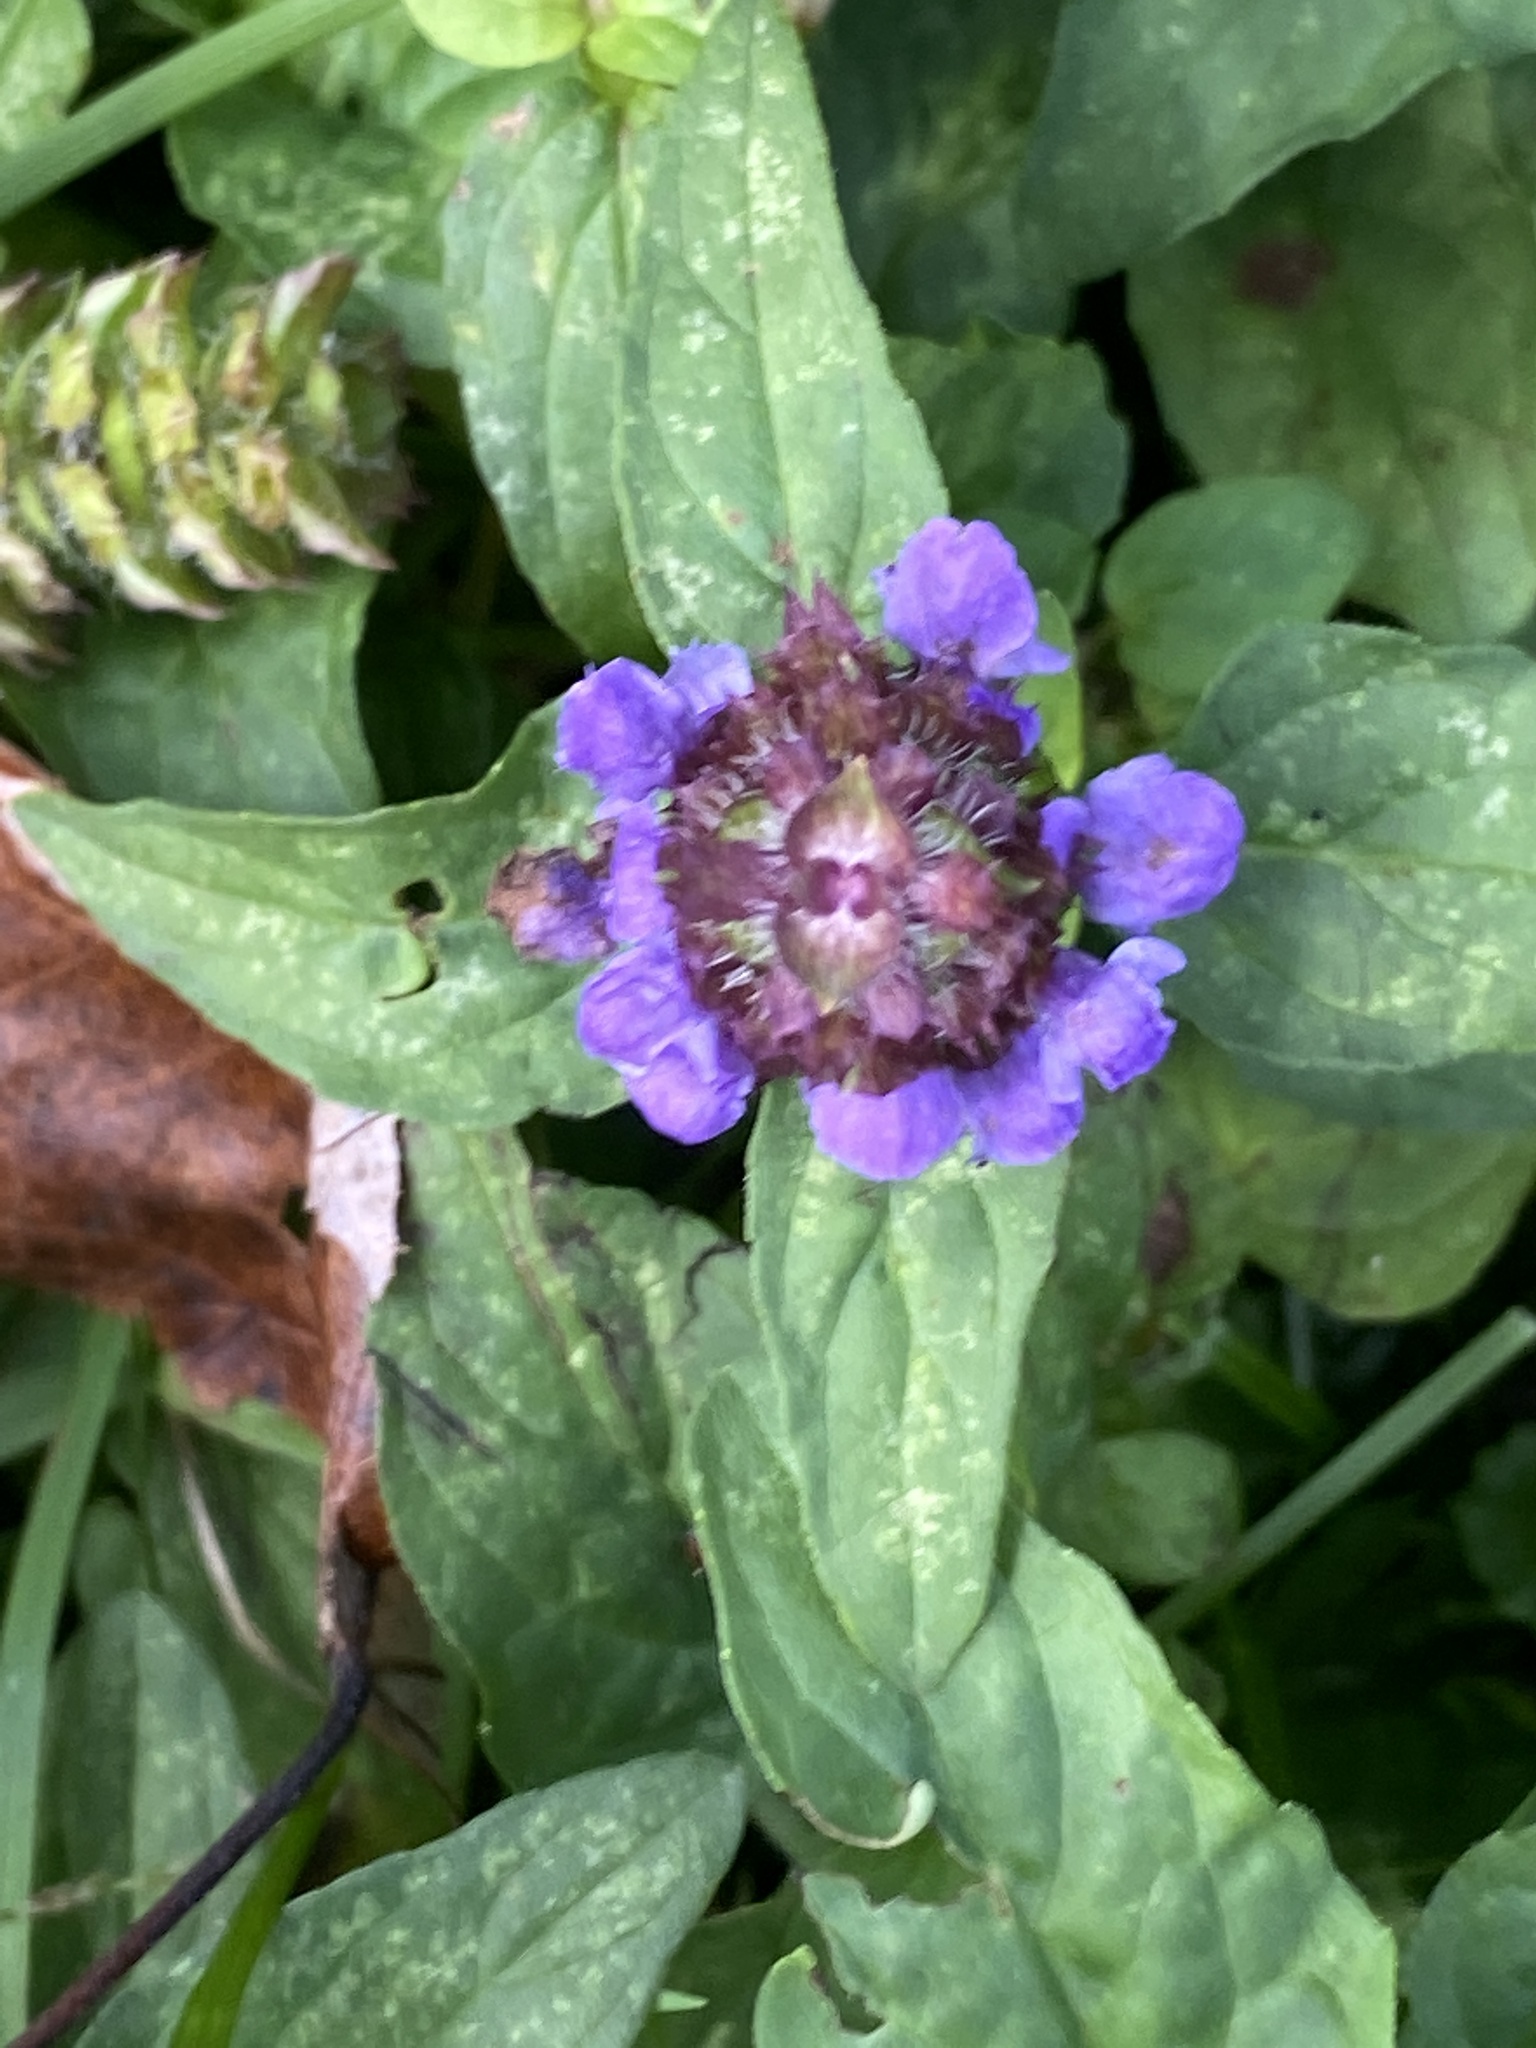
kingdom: Plantae
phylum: Tracheophyta
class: Magnoliopsida
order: Lamiales
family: Lamiaceae
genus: Prunella
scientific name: Prunella vulgaris
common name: Heal-all
